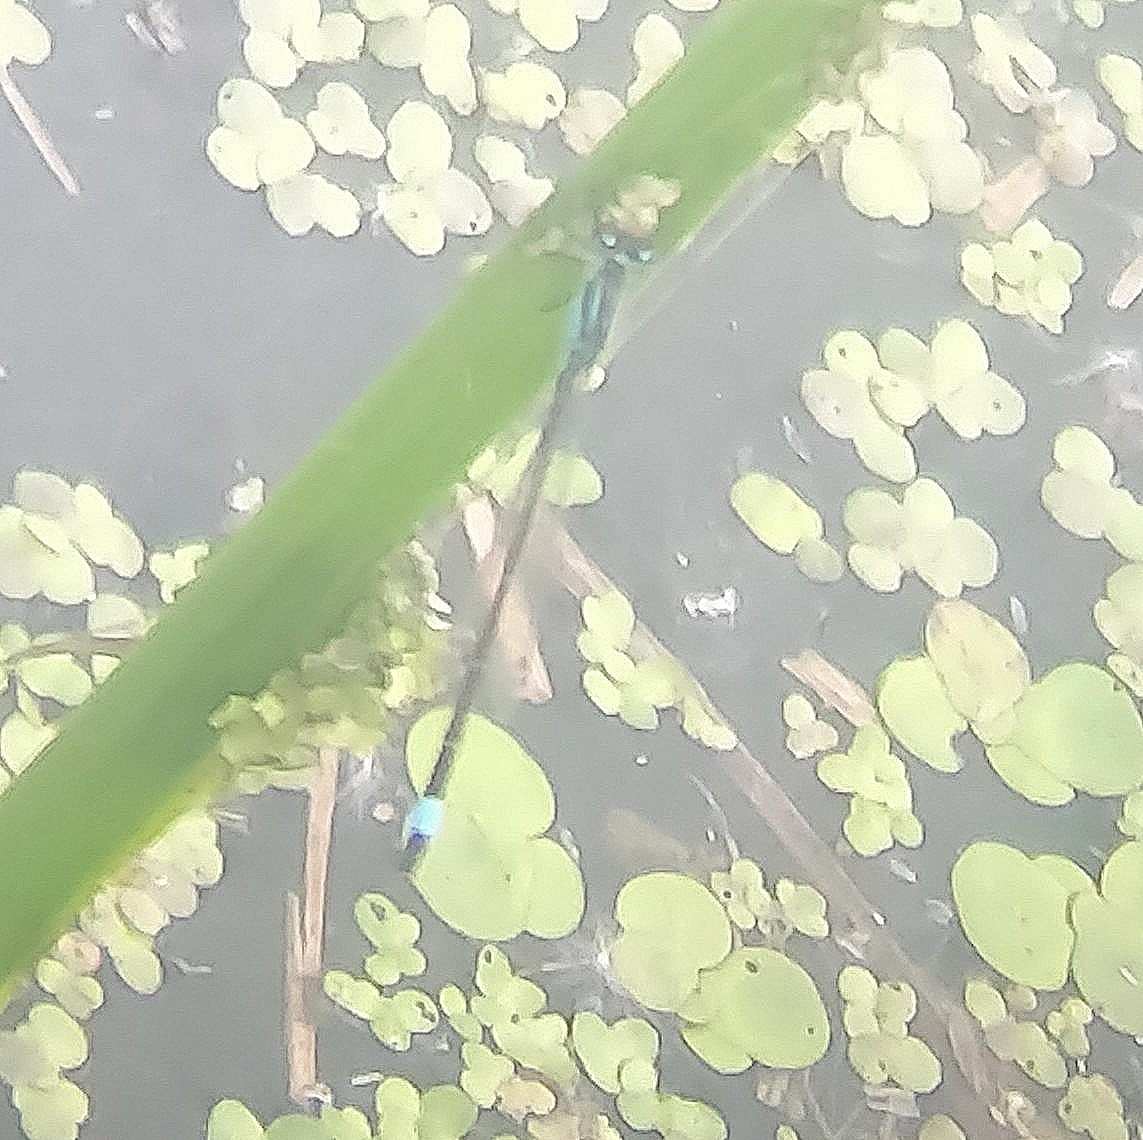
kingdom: Animalia
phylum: Arthropoda
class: Insecta
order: Odonata
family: Coenagrionidae
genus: Ischnura
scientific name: Ischnura elegans
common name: Blue-tailed damselfly
